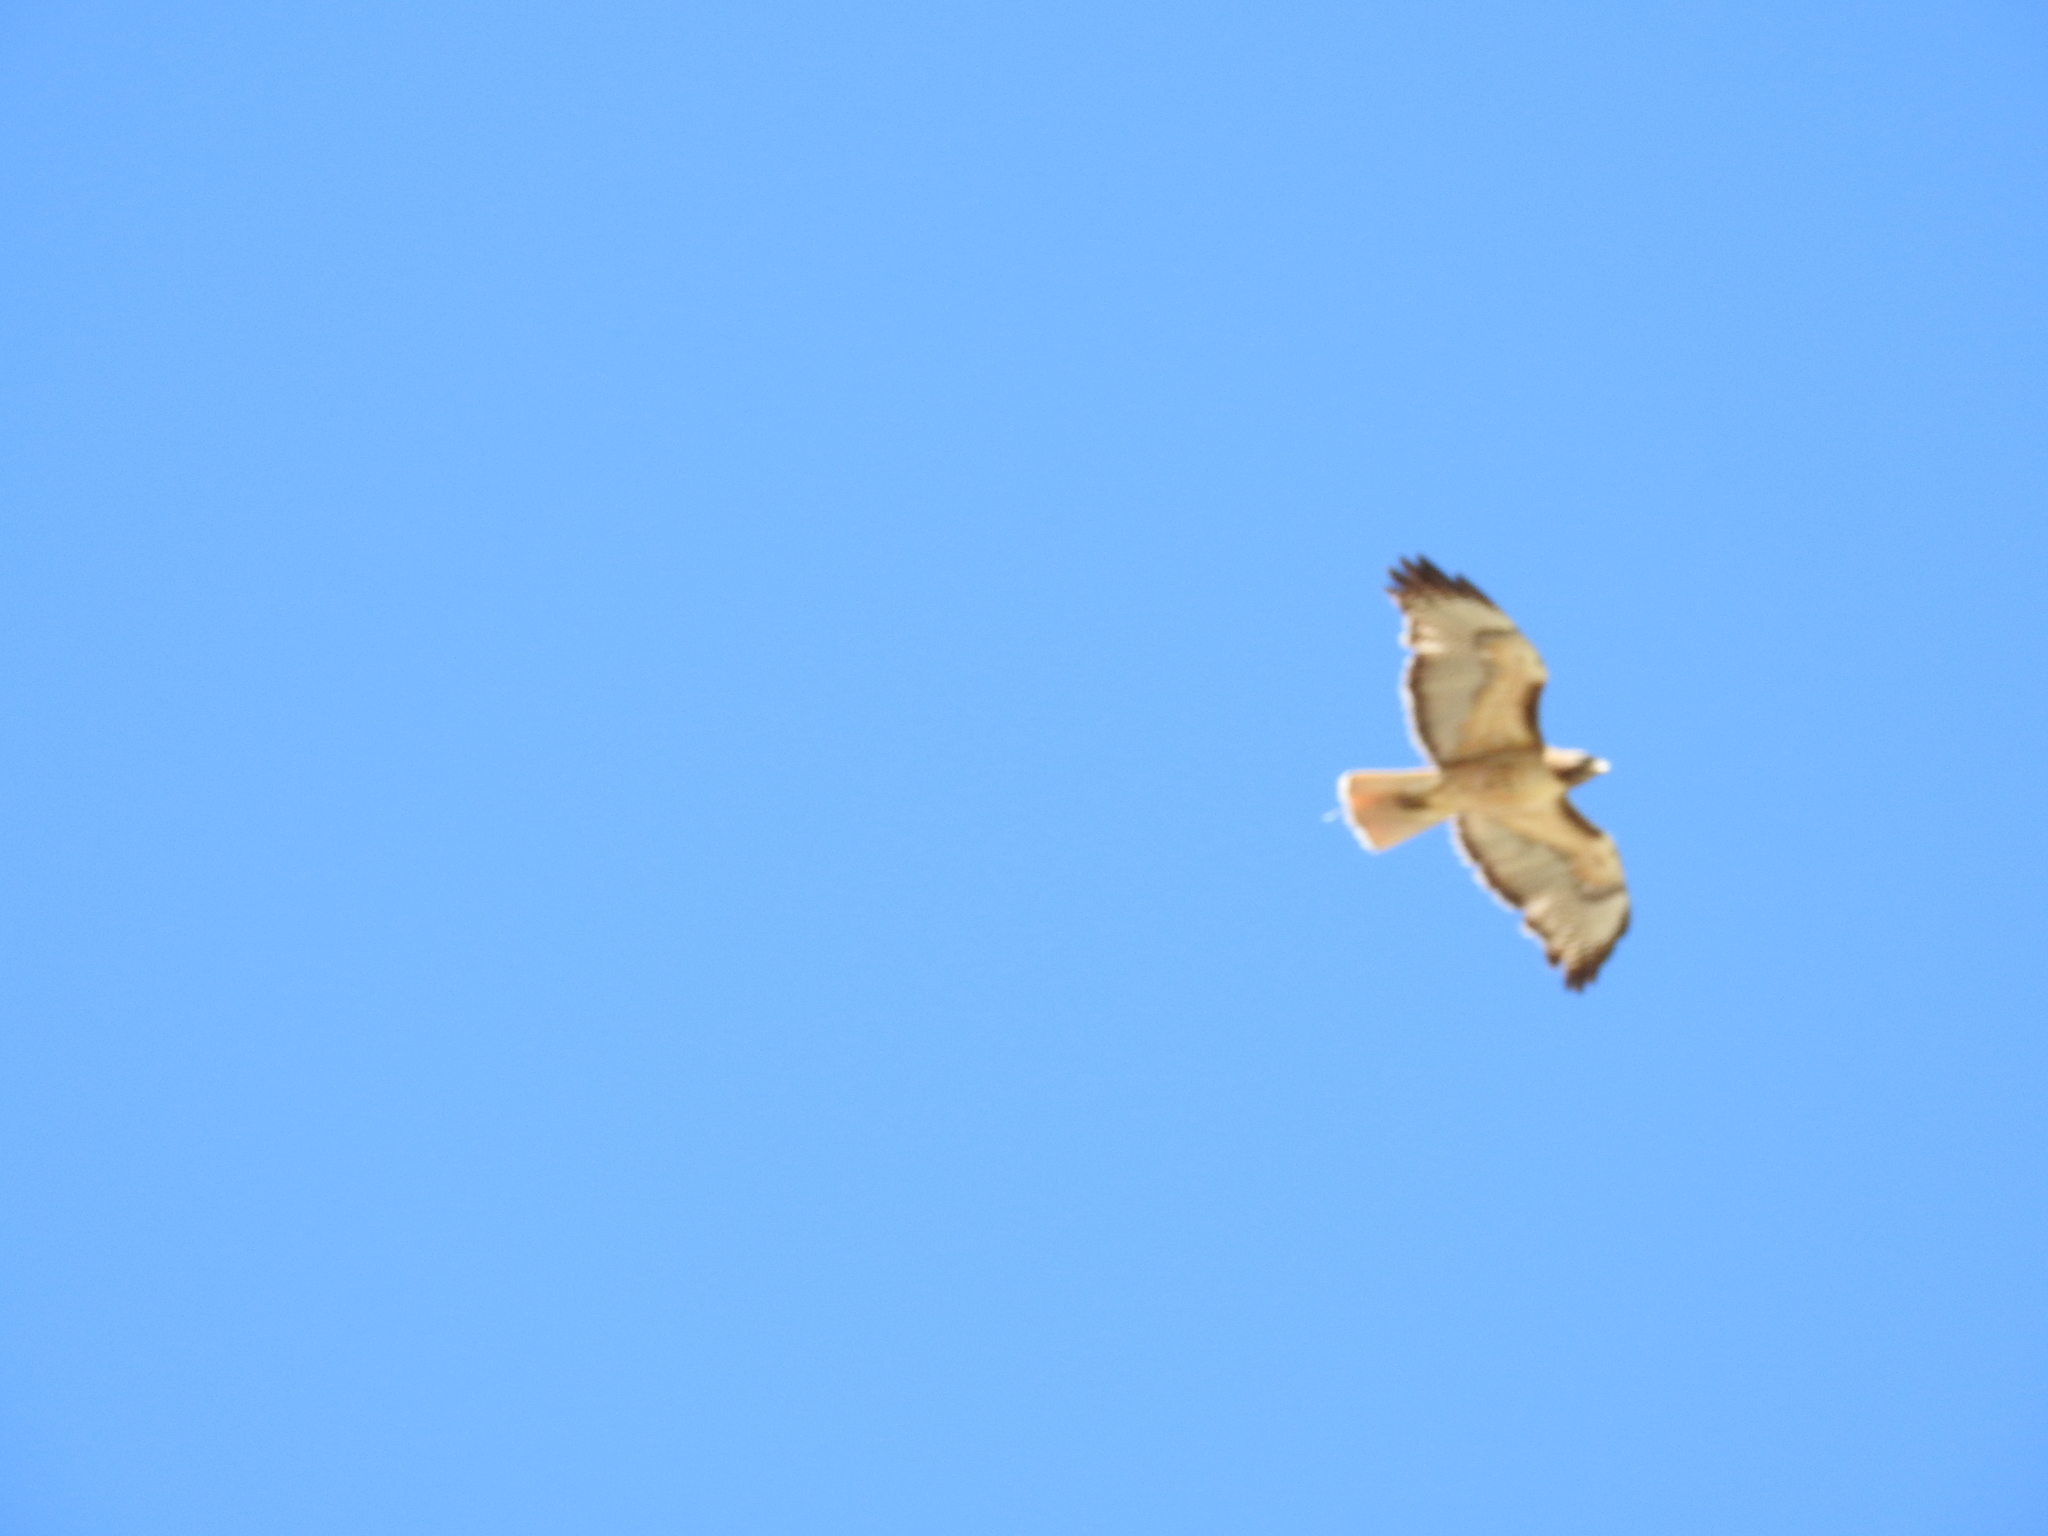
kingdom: Animalia
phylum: Chordata
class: Aves
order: Accipitriformes
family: Accipitridae
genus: Buteo
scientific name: Buteo jamaicensis
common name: Red-tailed hawk
